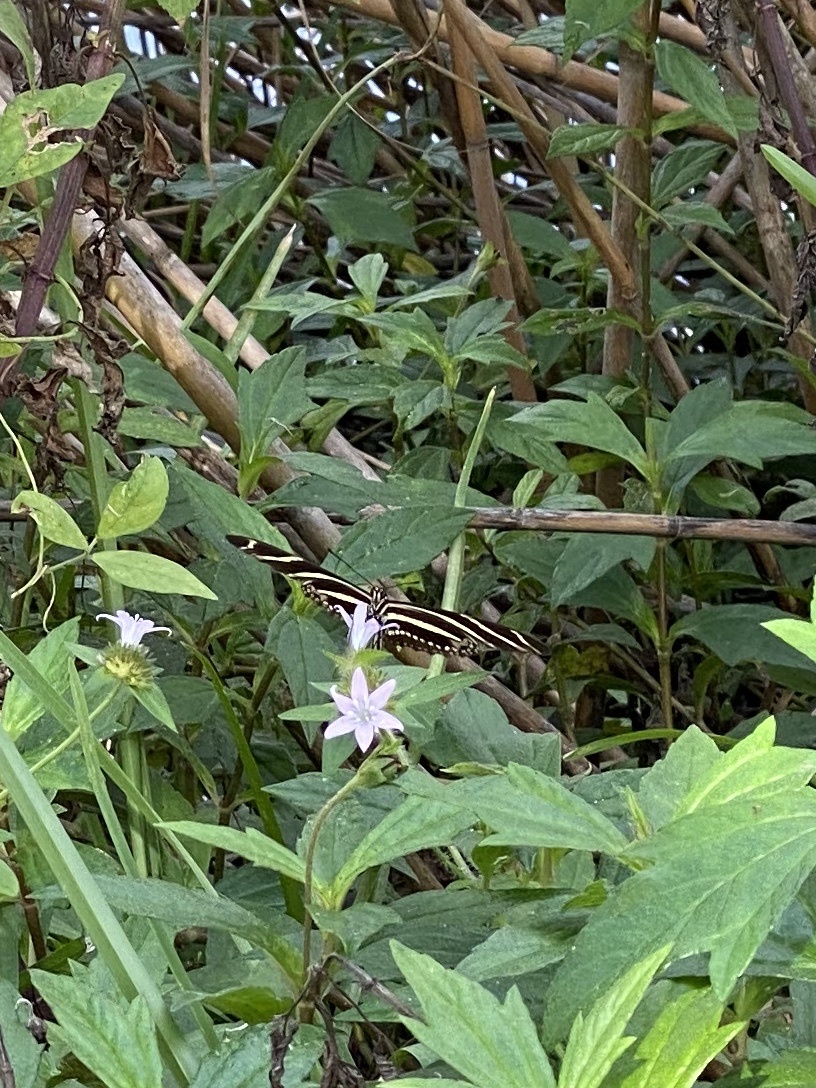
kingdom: Animalia
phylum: Arthropoda
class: Insecta
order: Lepidoptera
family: Nymphalidae
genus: Heliconius
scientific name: Heliconius charithonia
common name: Zebra long wing
